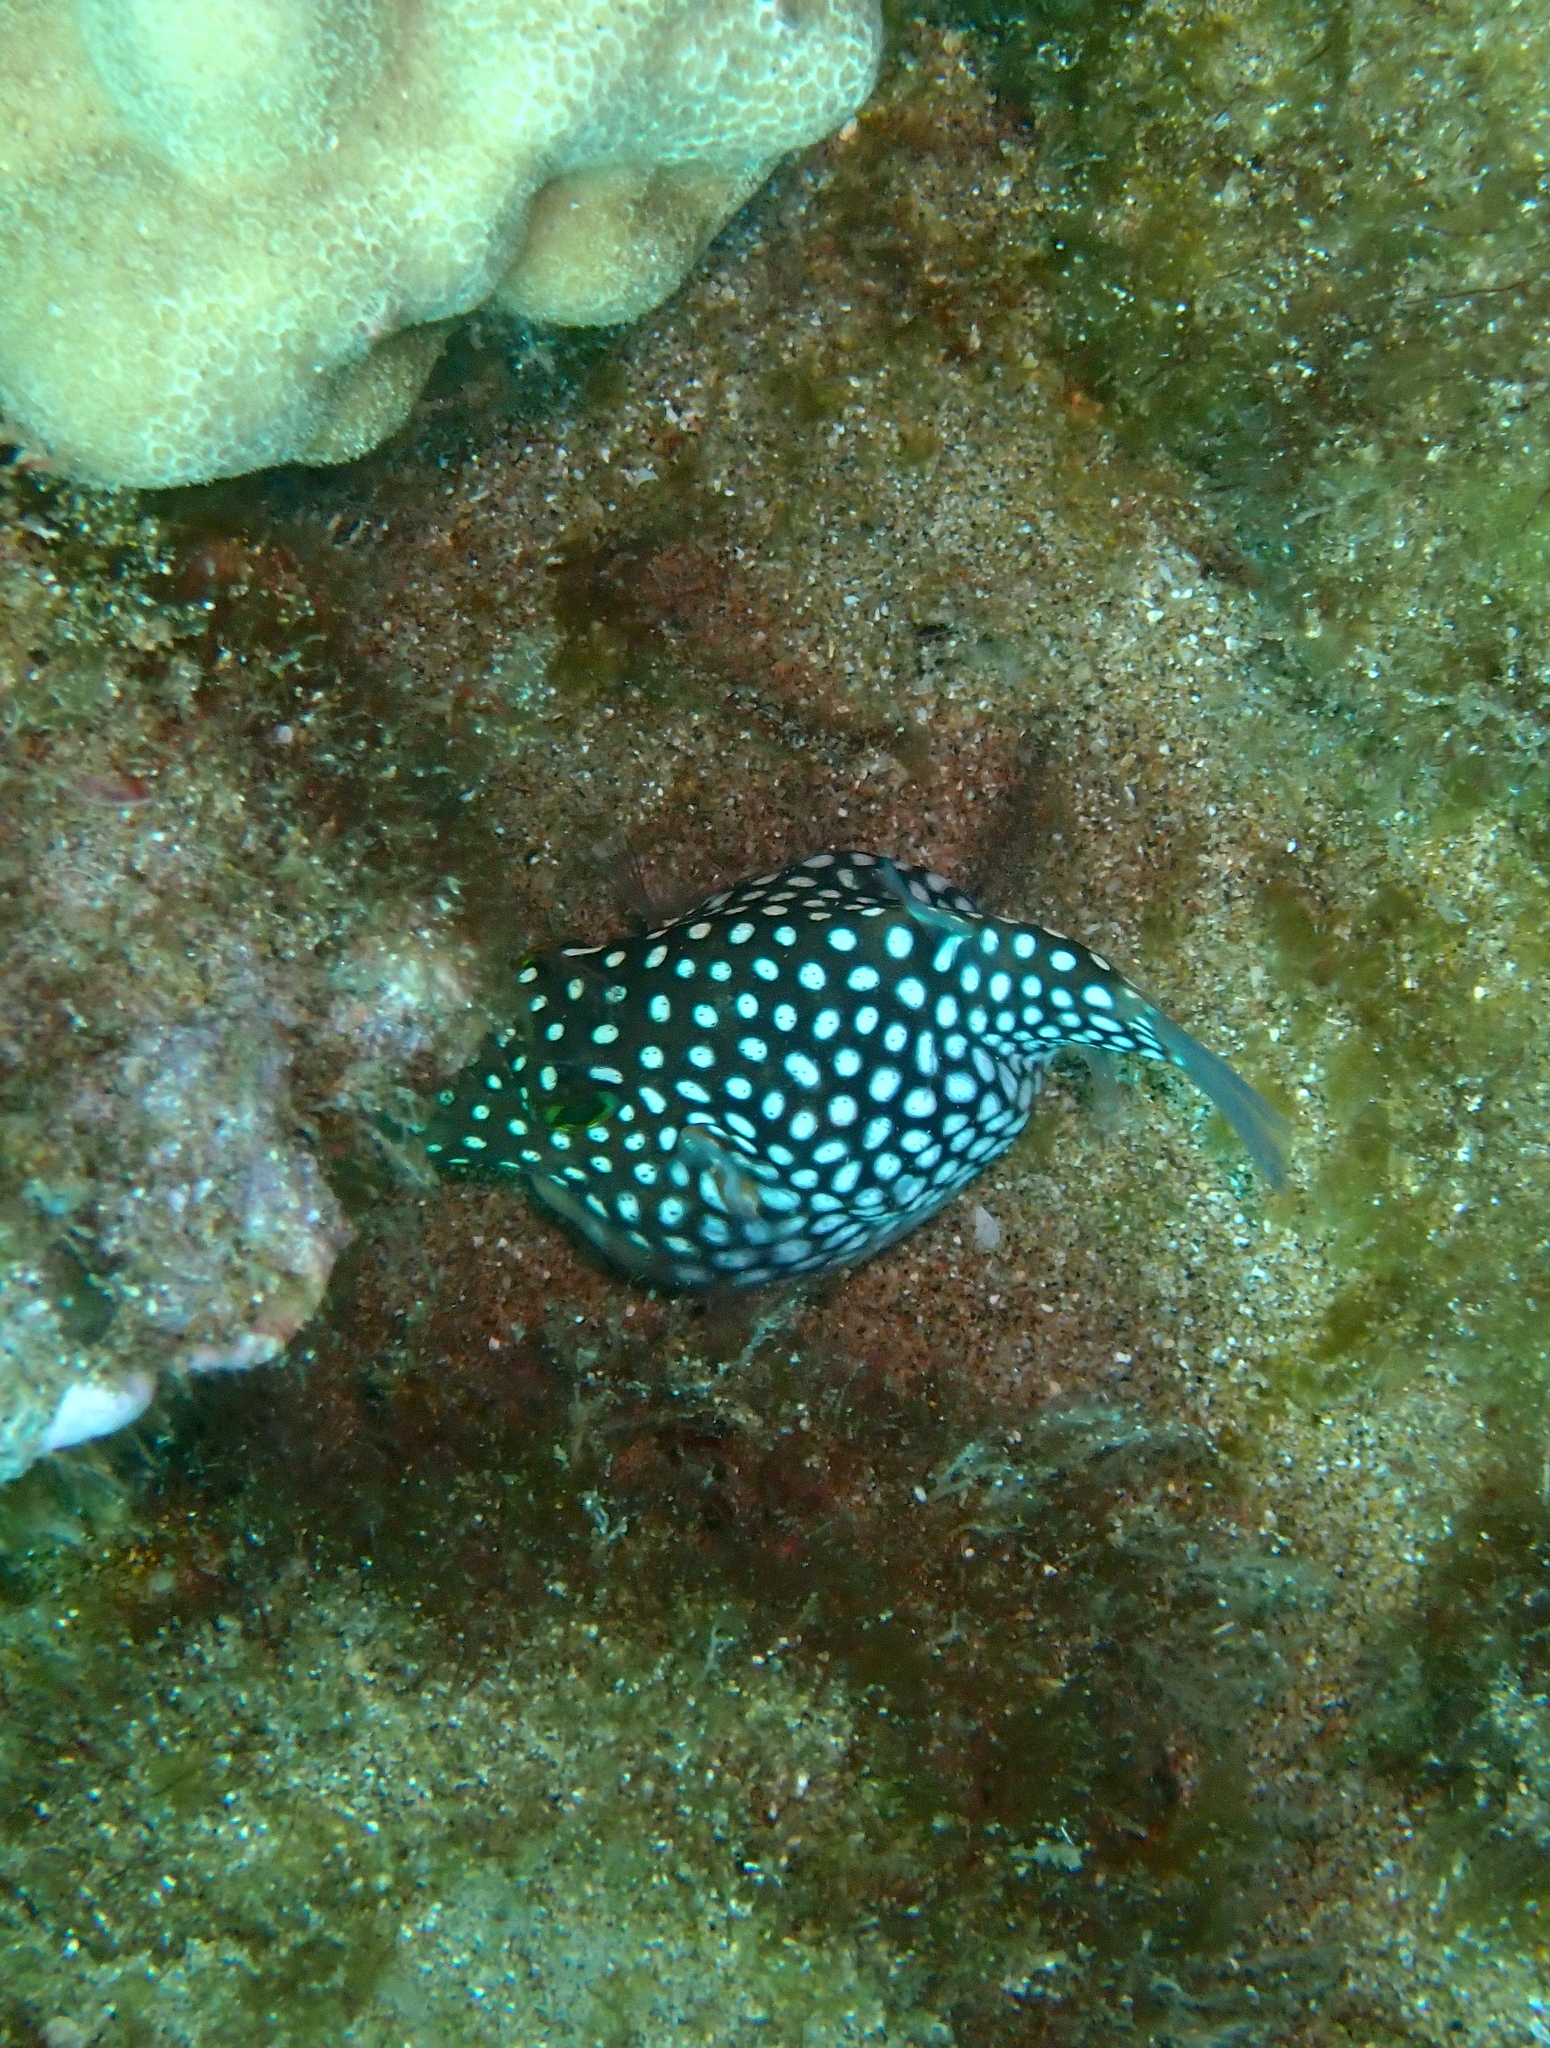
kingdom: Animalia
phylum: Chordata
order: Tetraodontiformes
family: Tetraodontidae
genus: Canthigaster
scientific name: Canthigaster jactator
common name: Hawaiian whitespotted toby
